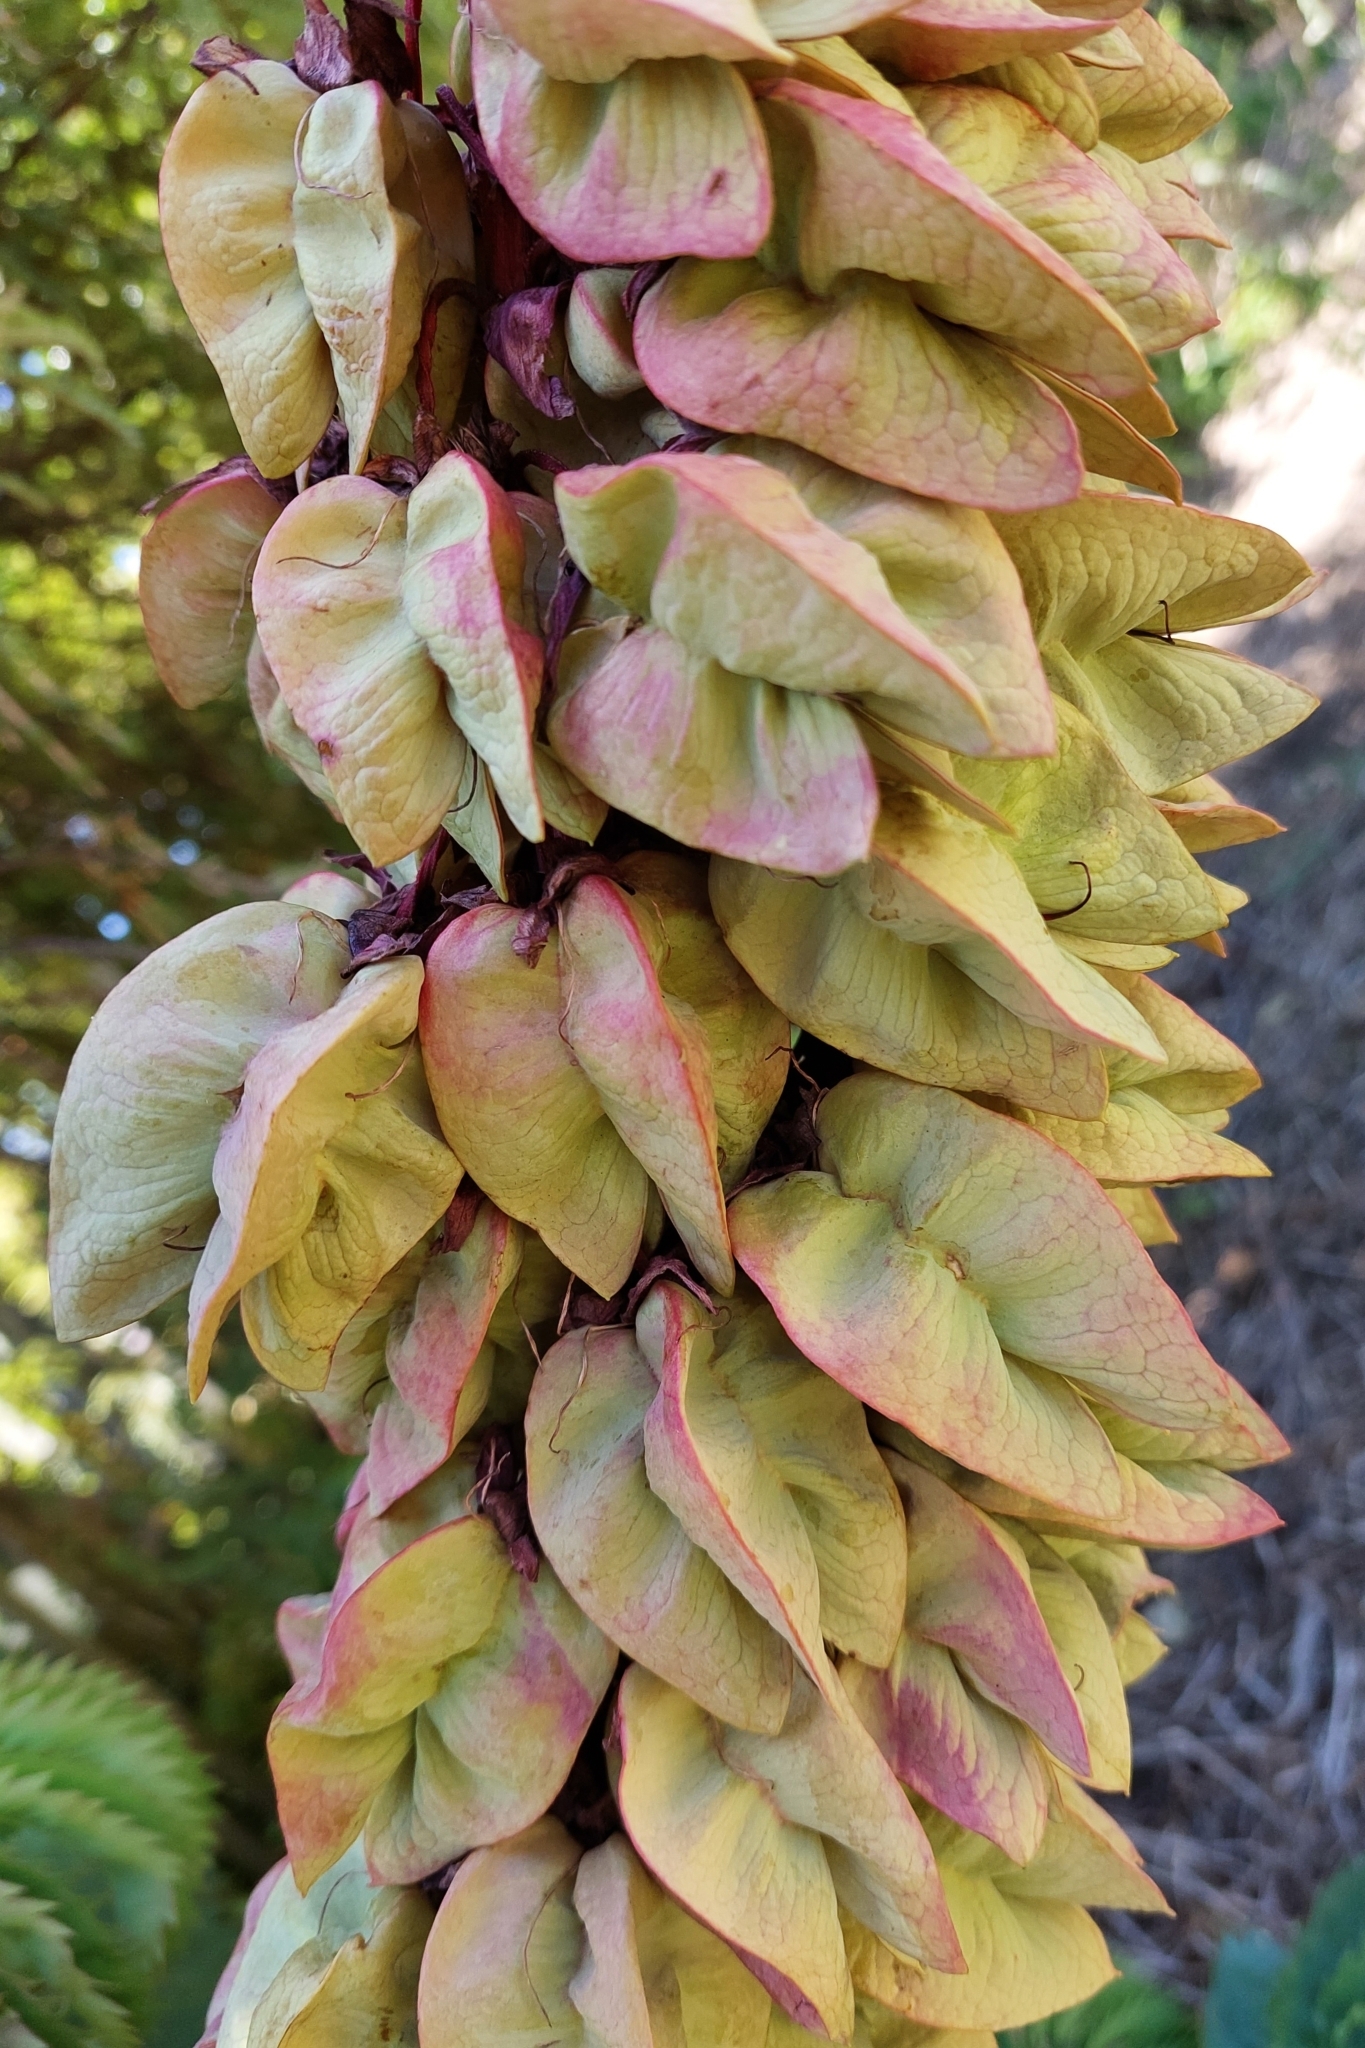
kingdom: Plantae
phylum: Tracheophyta
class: Magnoliopsida
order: Geraniales
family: Melianthaceae
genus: Melianthus
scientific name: Melianthus major
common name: Honey-flower
